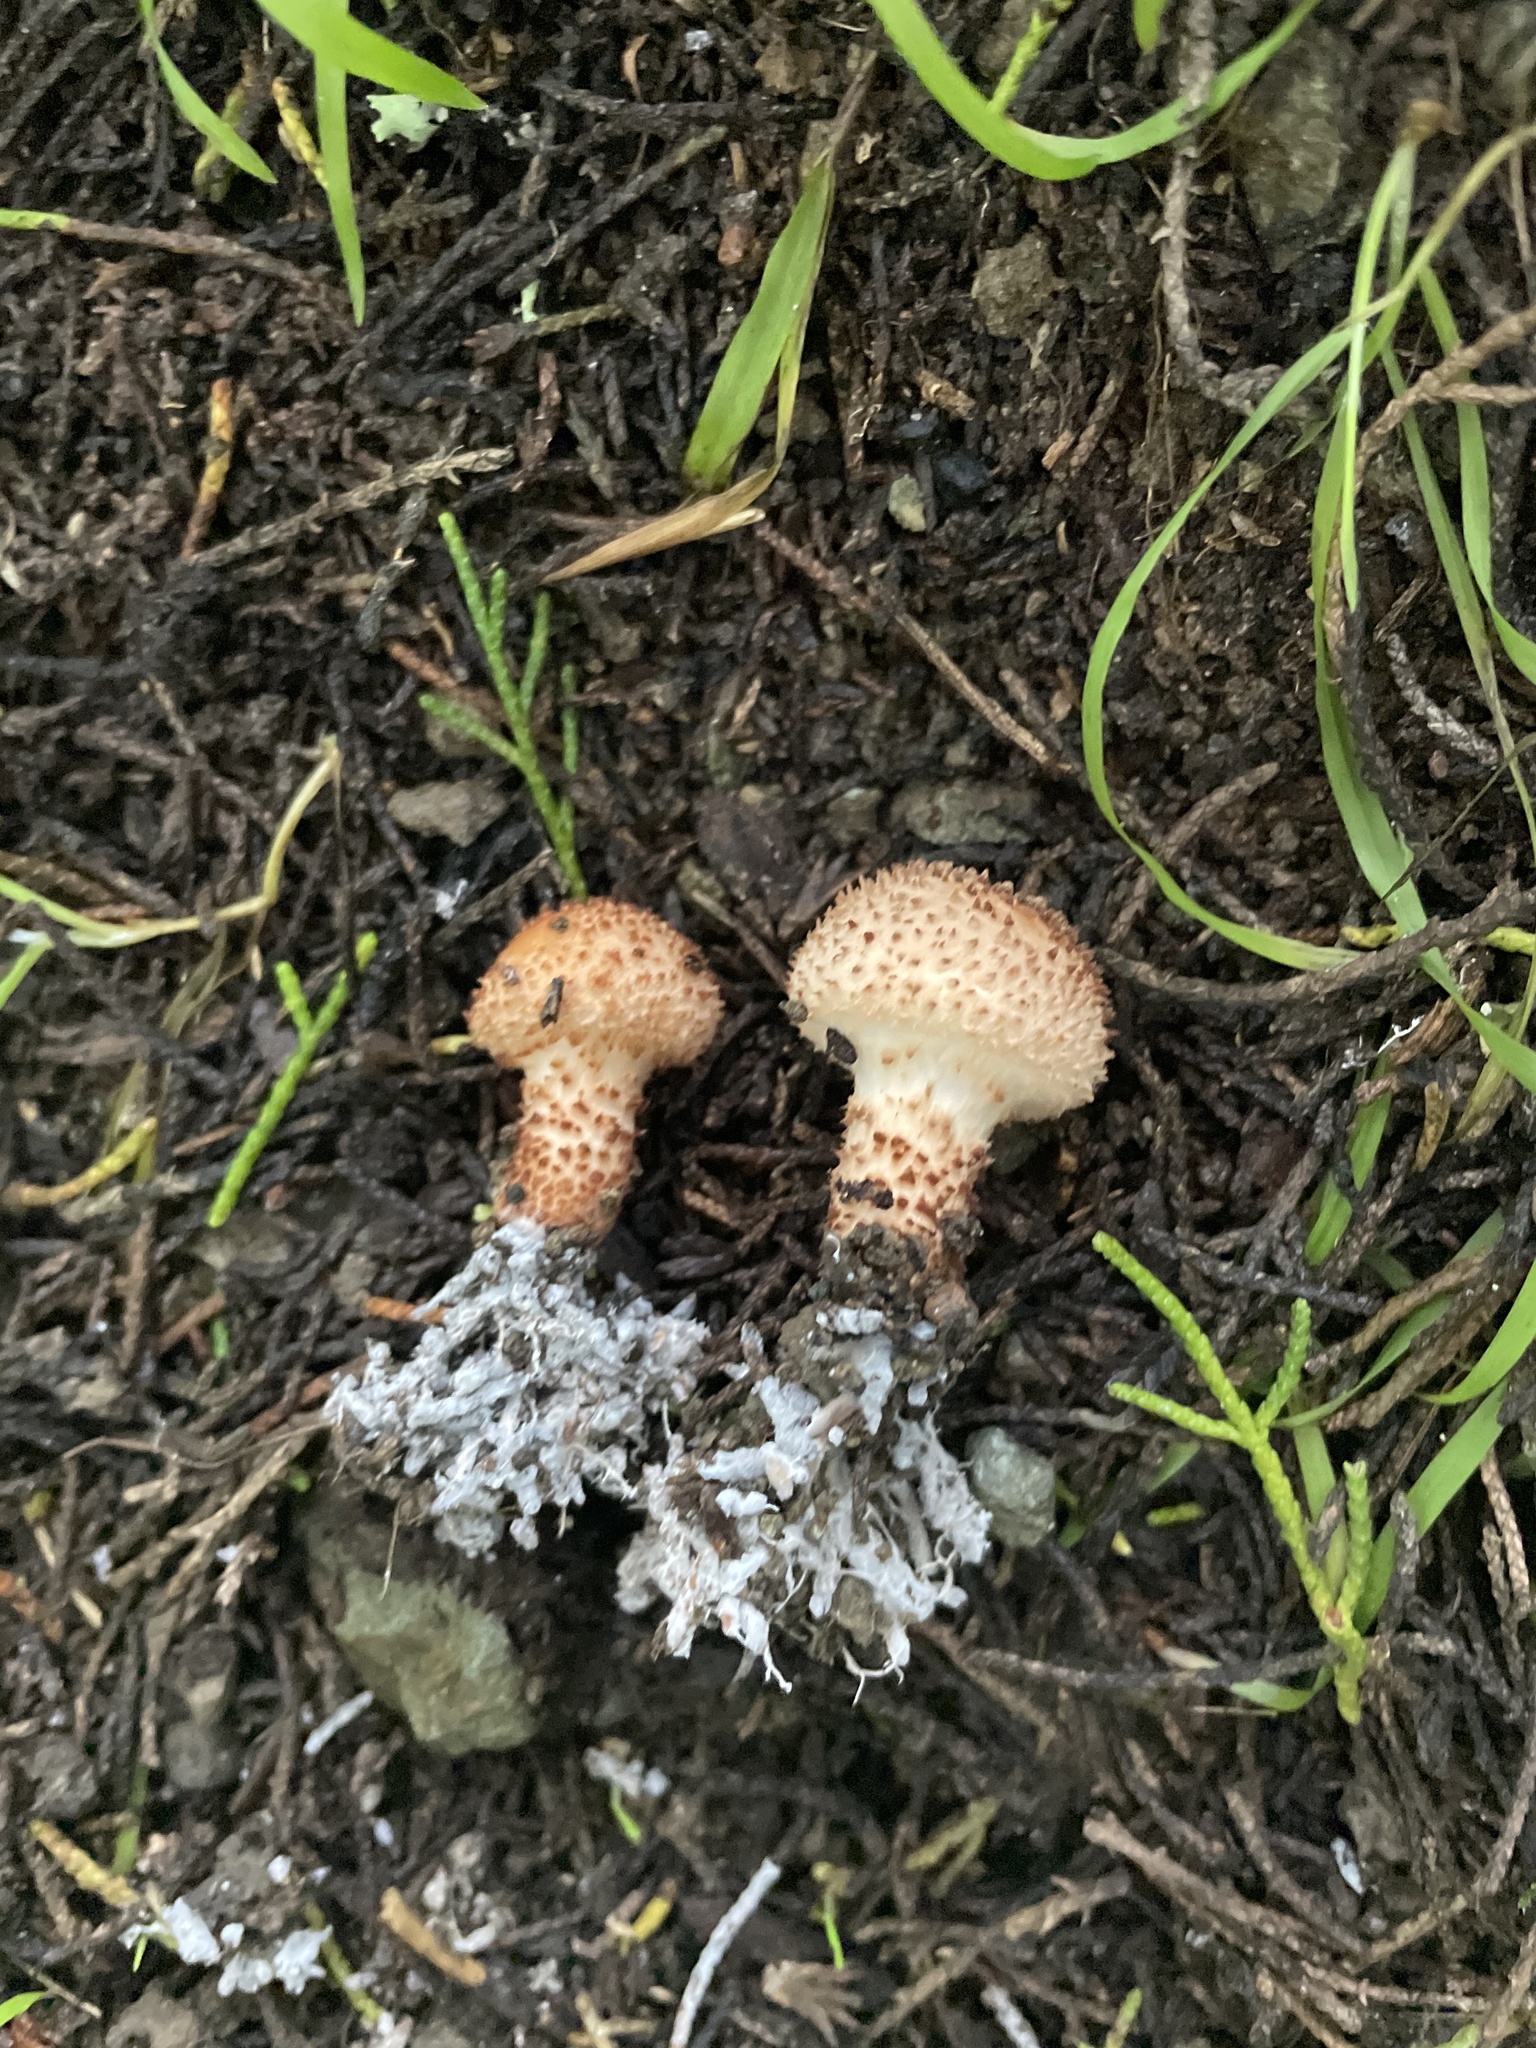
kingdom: Fungi
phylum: Basidiomycota
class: Agaricomycetes
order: Agaricales
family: Agaricaceae
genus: Echinoderma
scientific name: Echinoderma asperum
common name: Freckled dapperling
